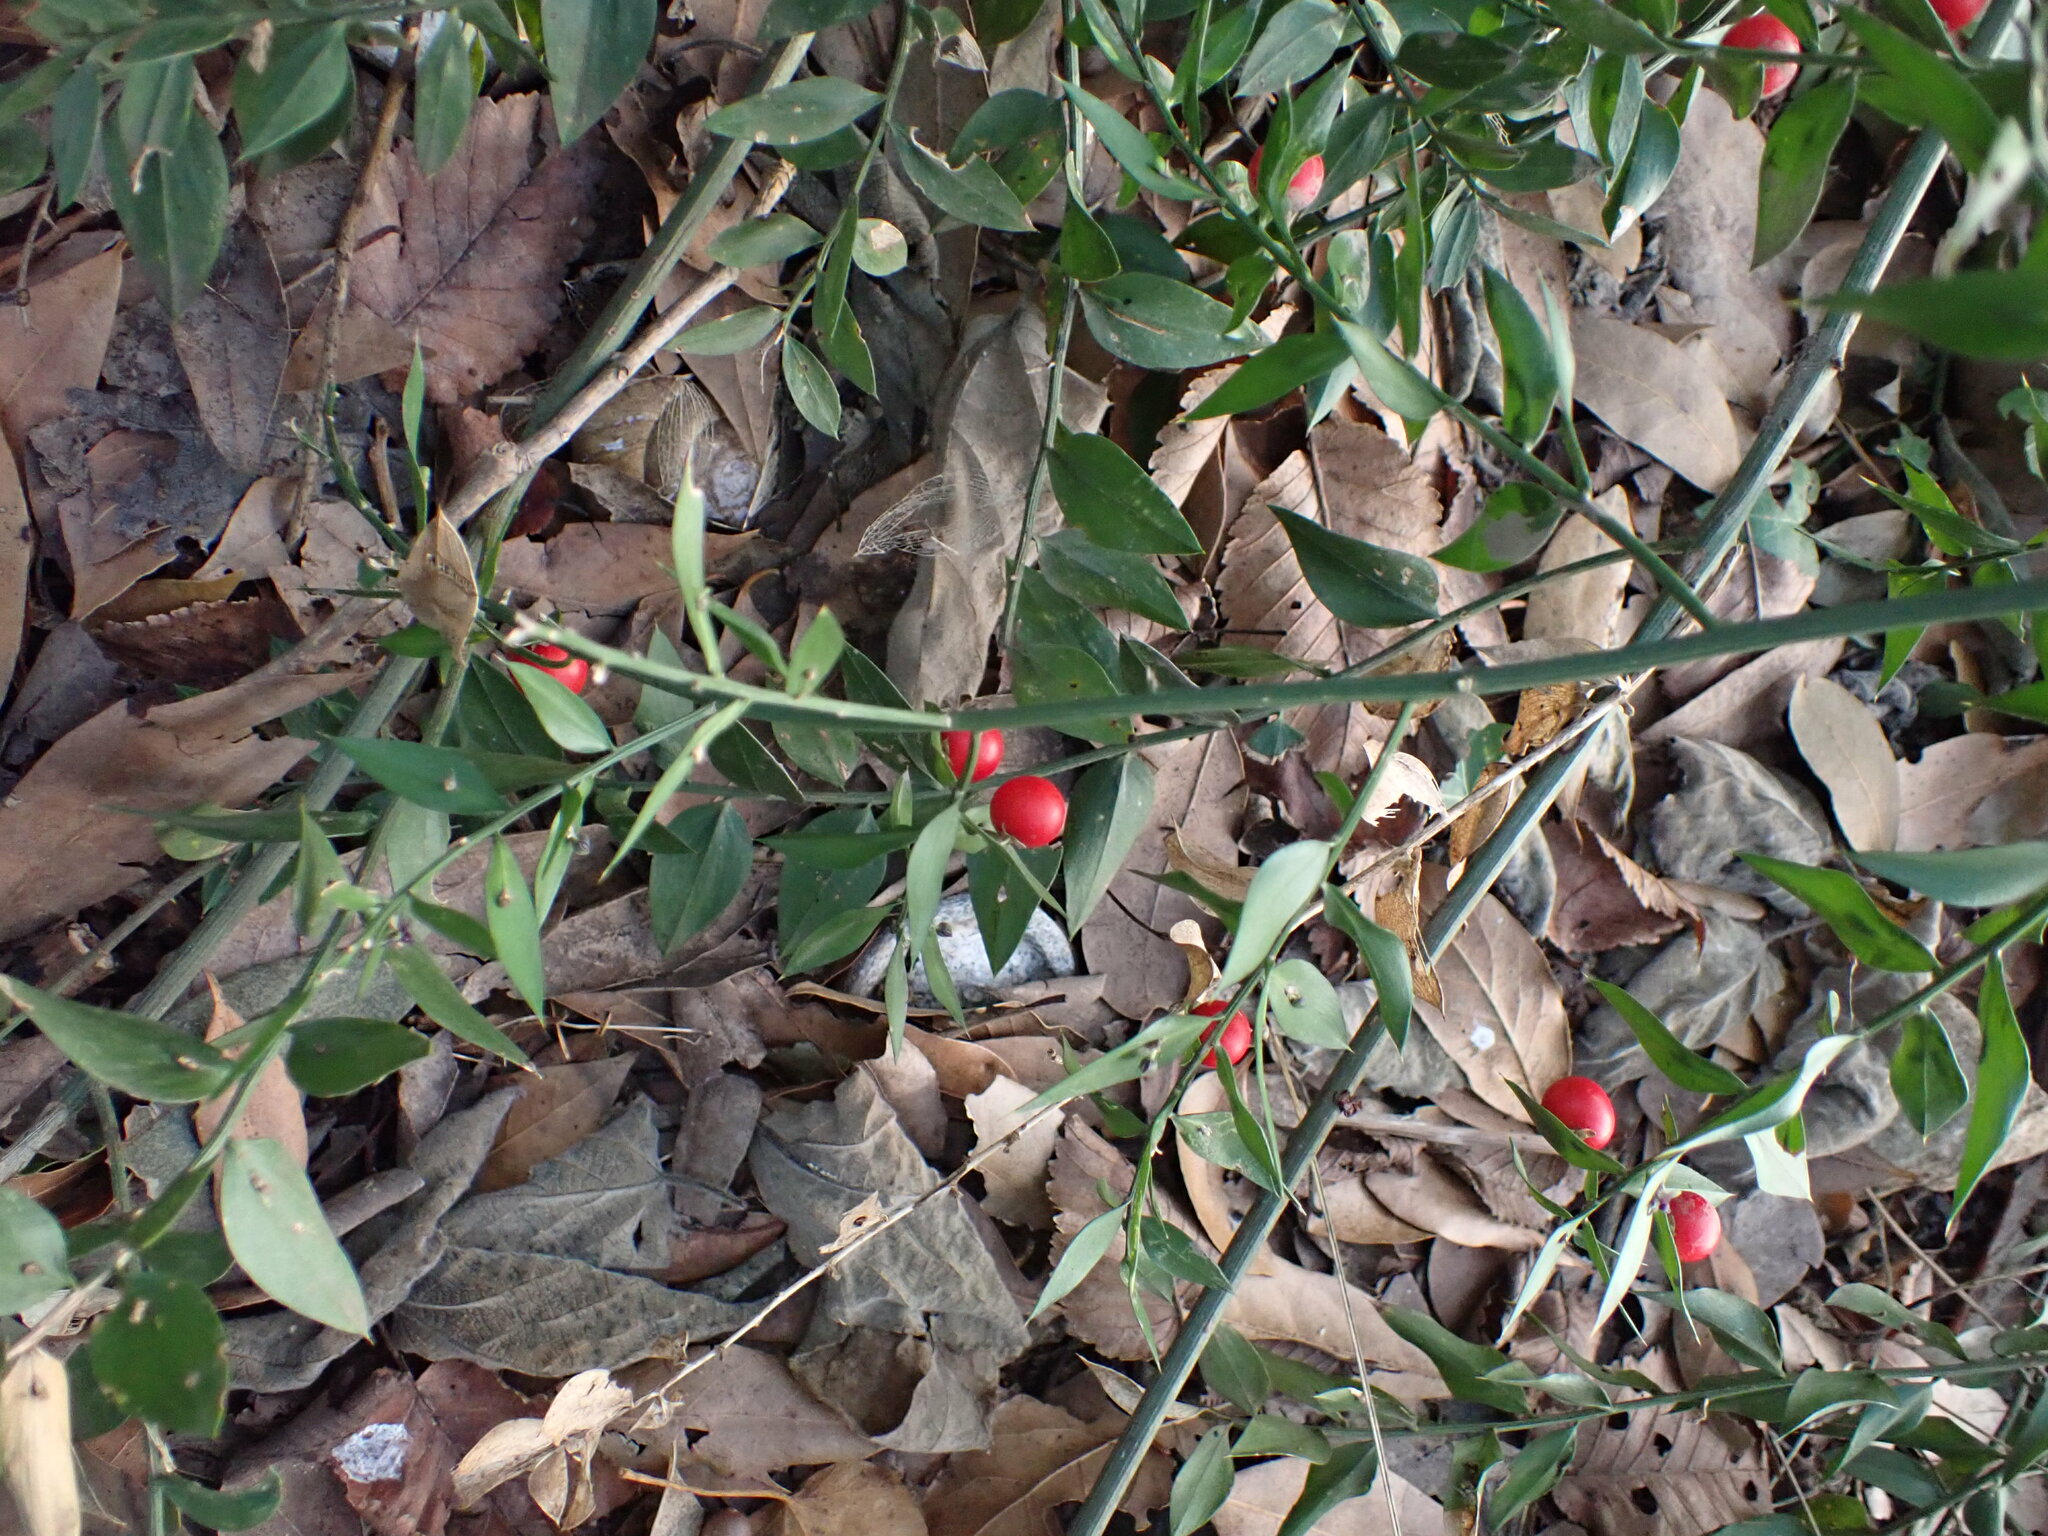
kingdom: Plantae
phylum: Tracheophyta
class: Liliopsida
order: Asparagales
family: Asparagaceae
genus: Ruscus
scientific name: Ruscus aculeatus
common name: Butcher's-broom
